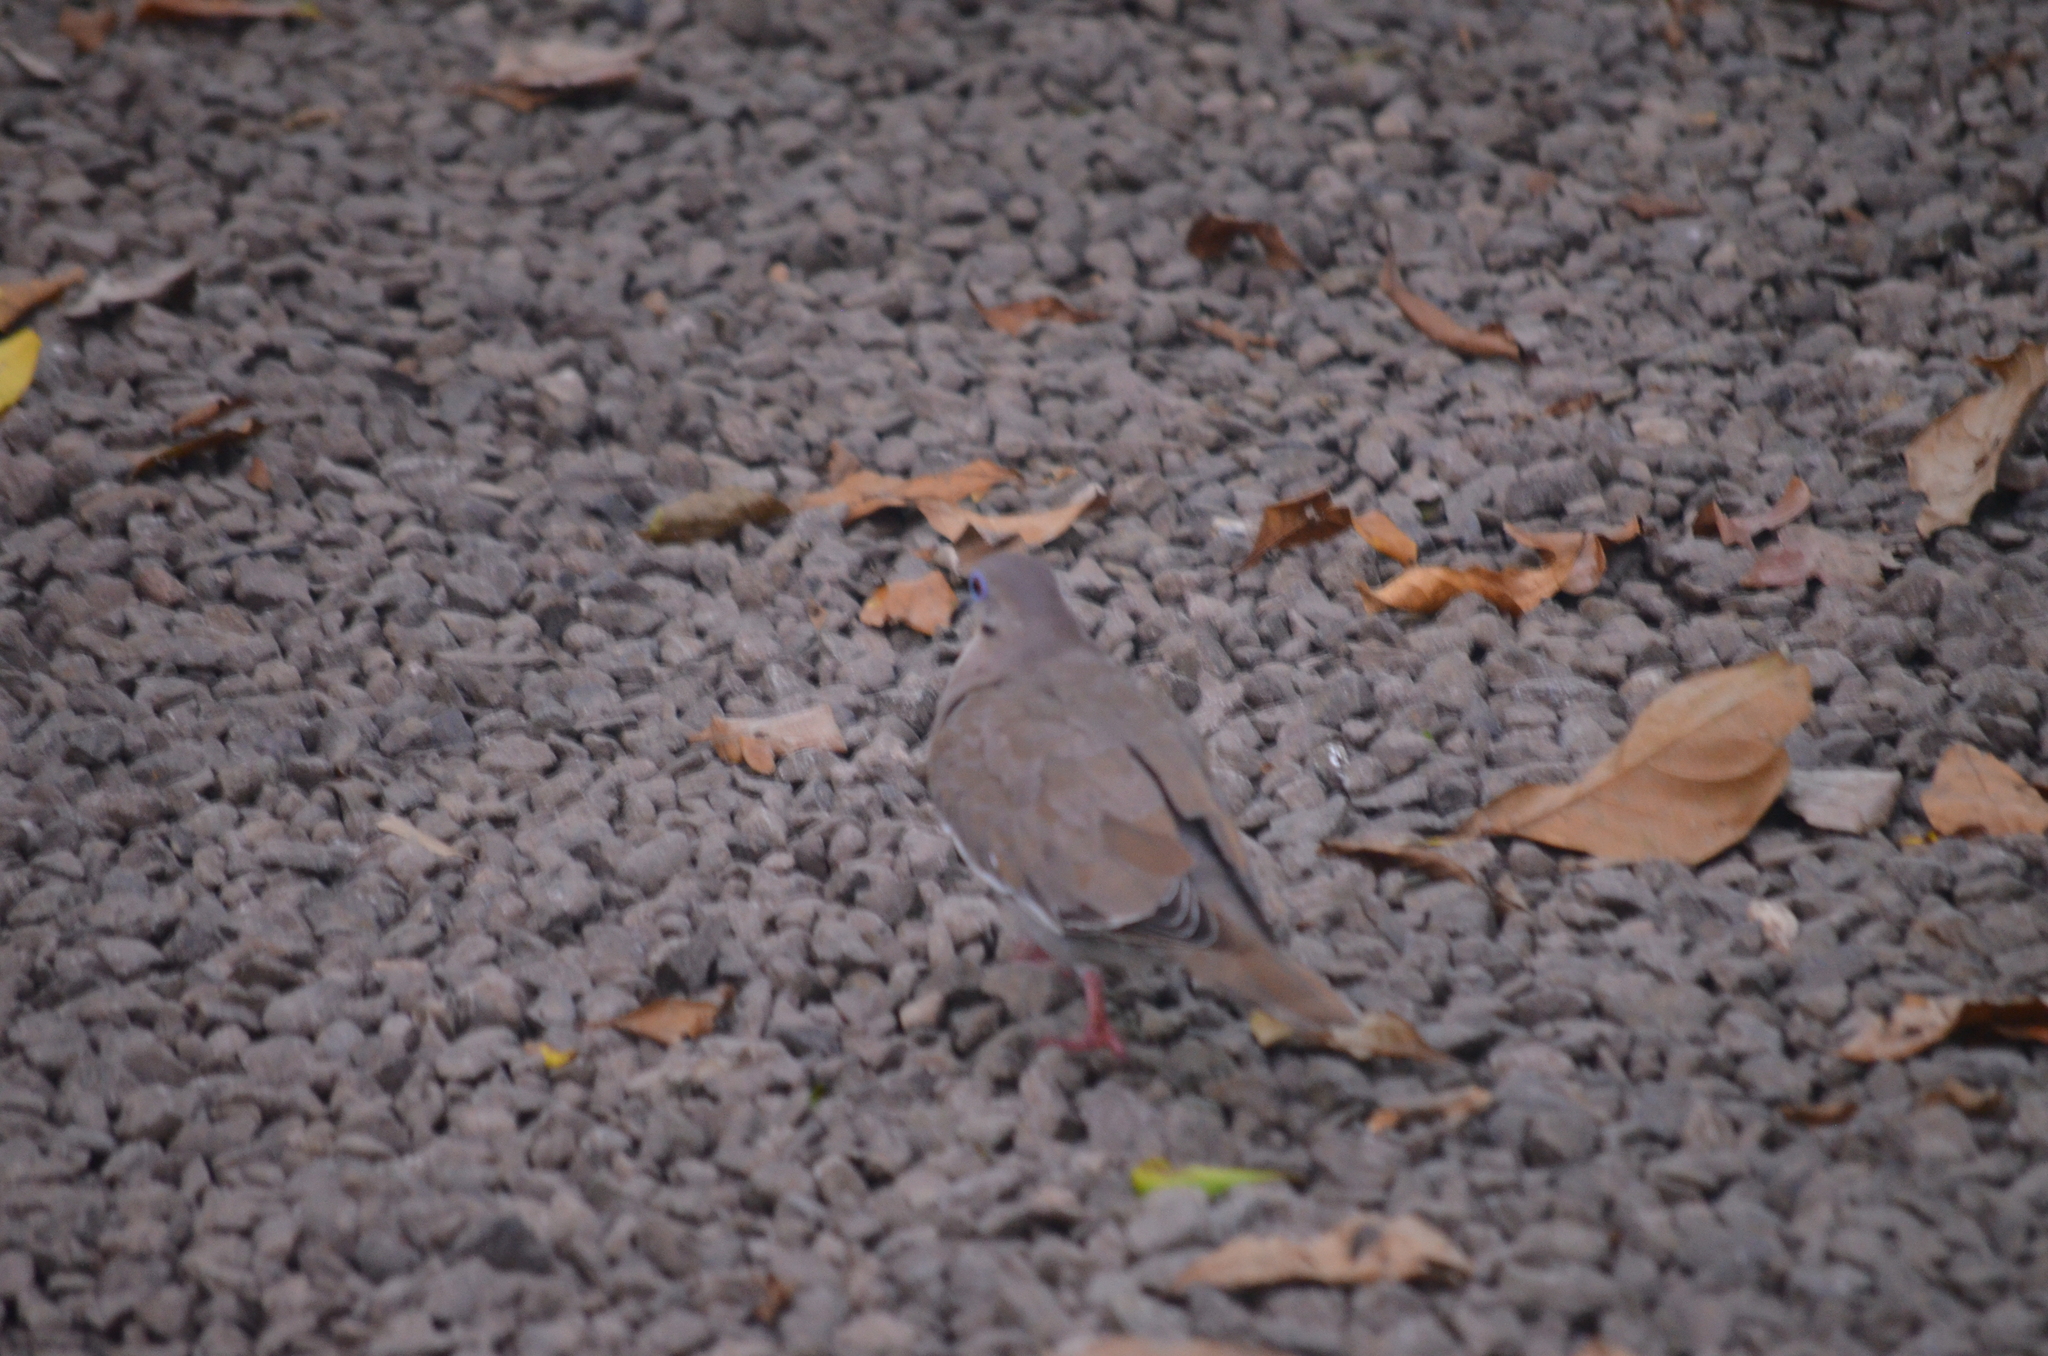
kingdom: Animalia
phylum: Chordata
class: Aves
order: Columbiformes
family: Columbidae
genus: Zenaida
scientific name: Zenaida asiatica
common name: White-winged dove
